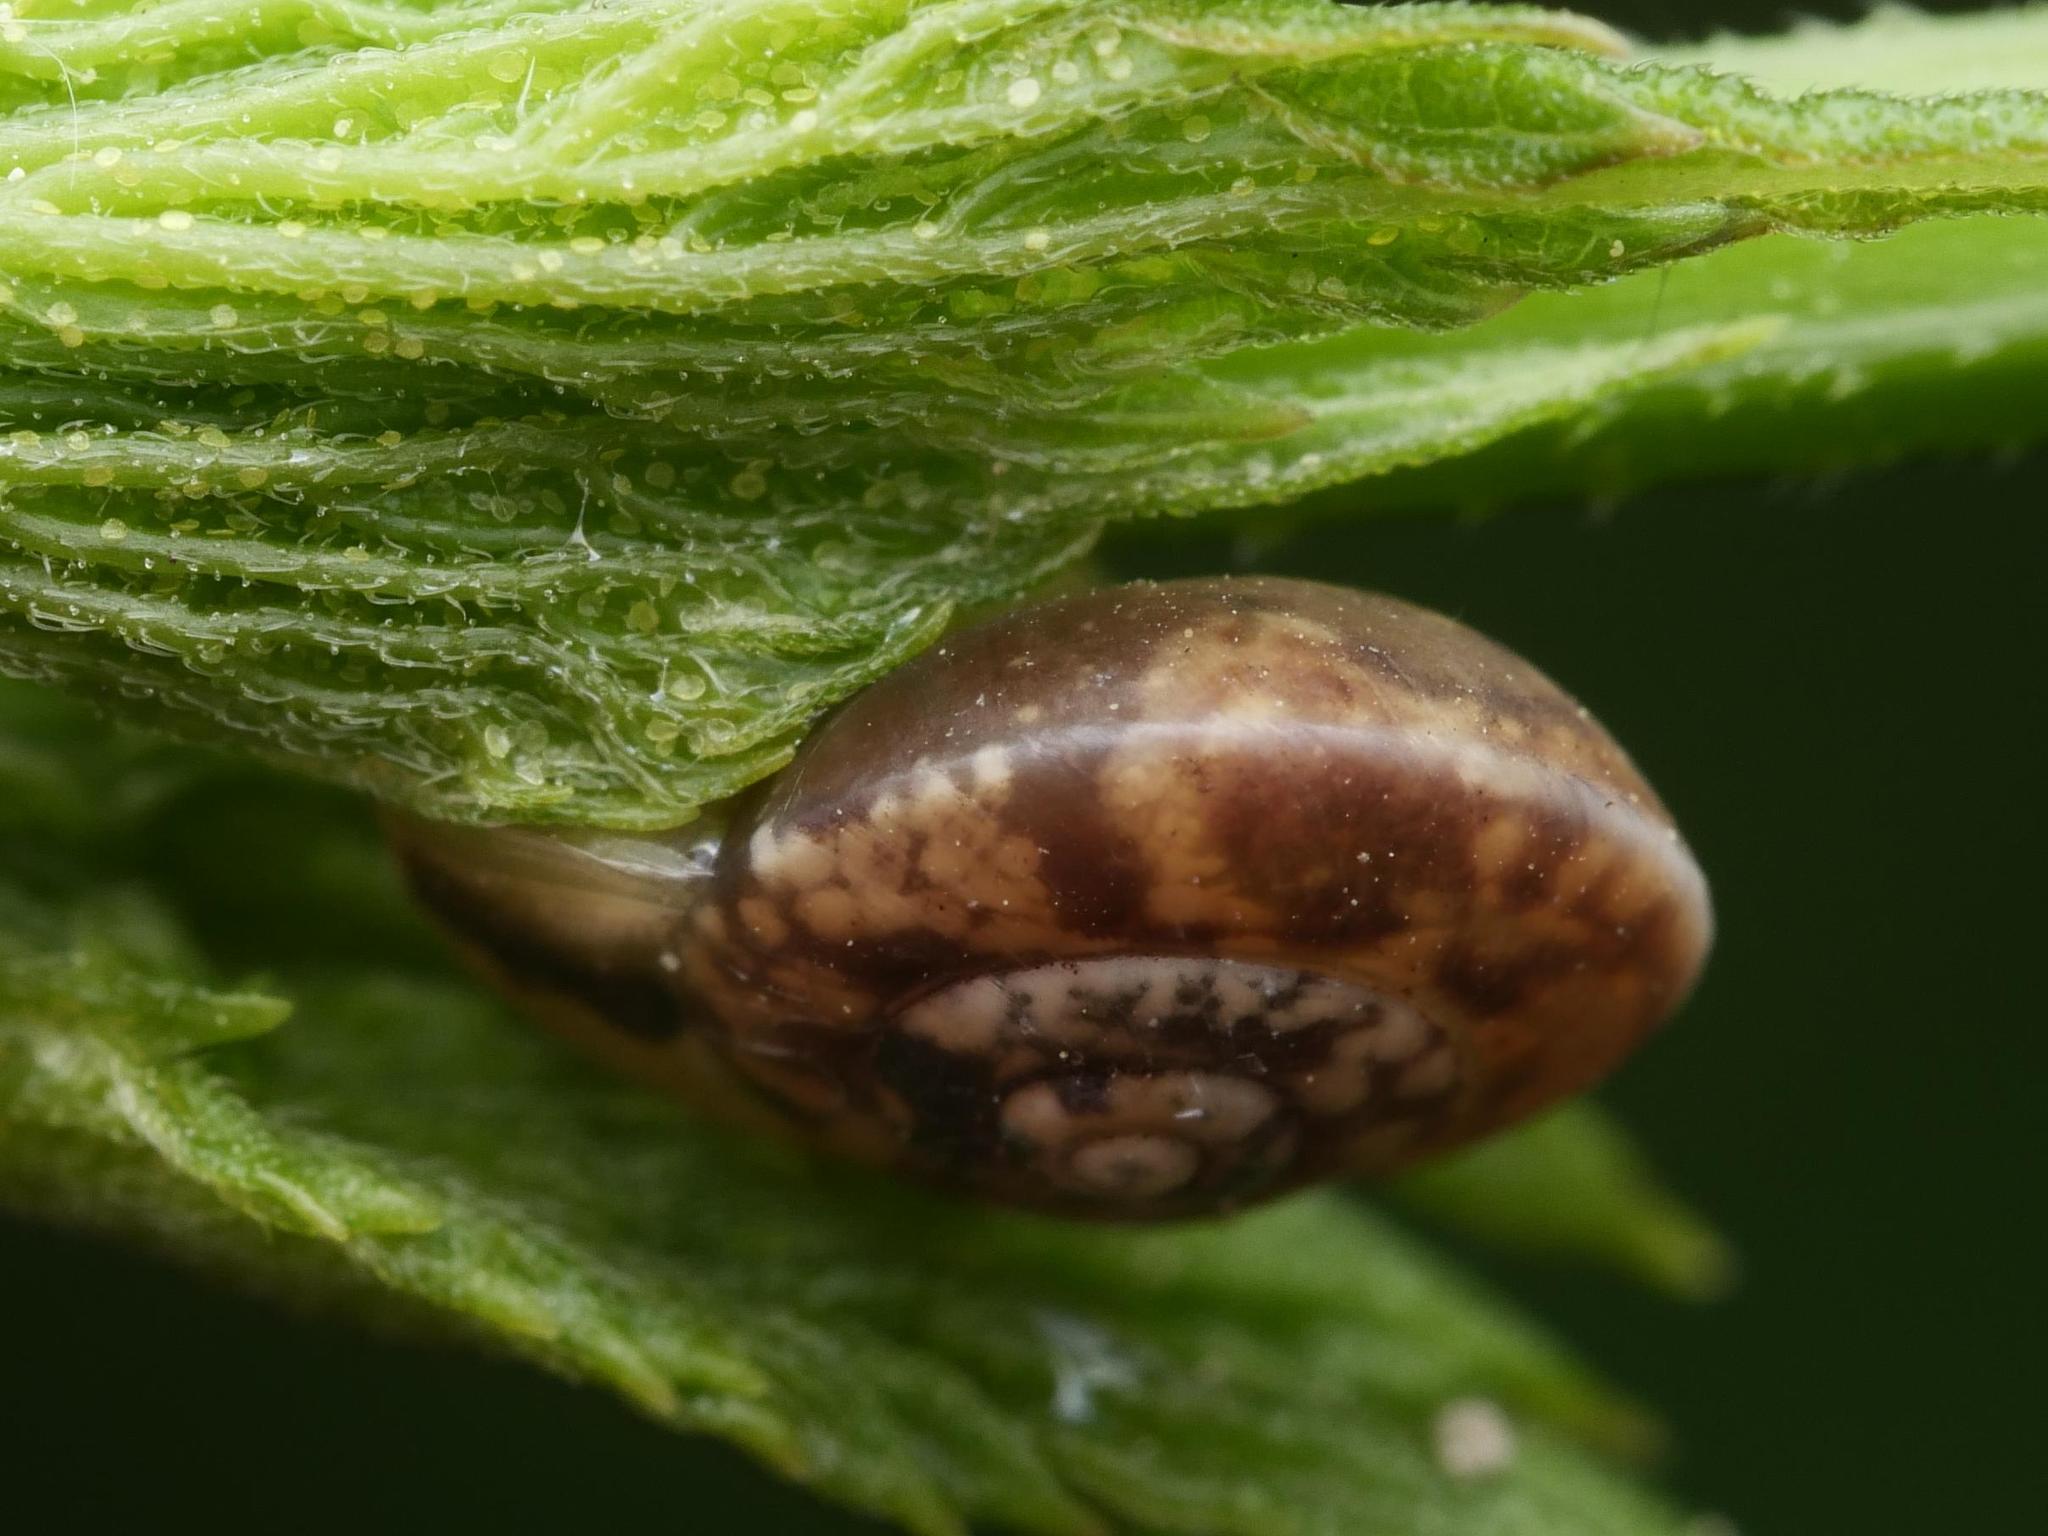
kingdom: Animalia
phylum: Mollusca
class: Gastropoda
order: Stylommatophora
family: Hygromiidae
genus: Hygromia
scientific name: Hygromia cinctella
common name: Girdled snail
